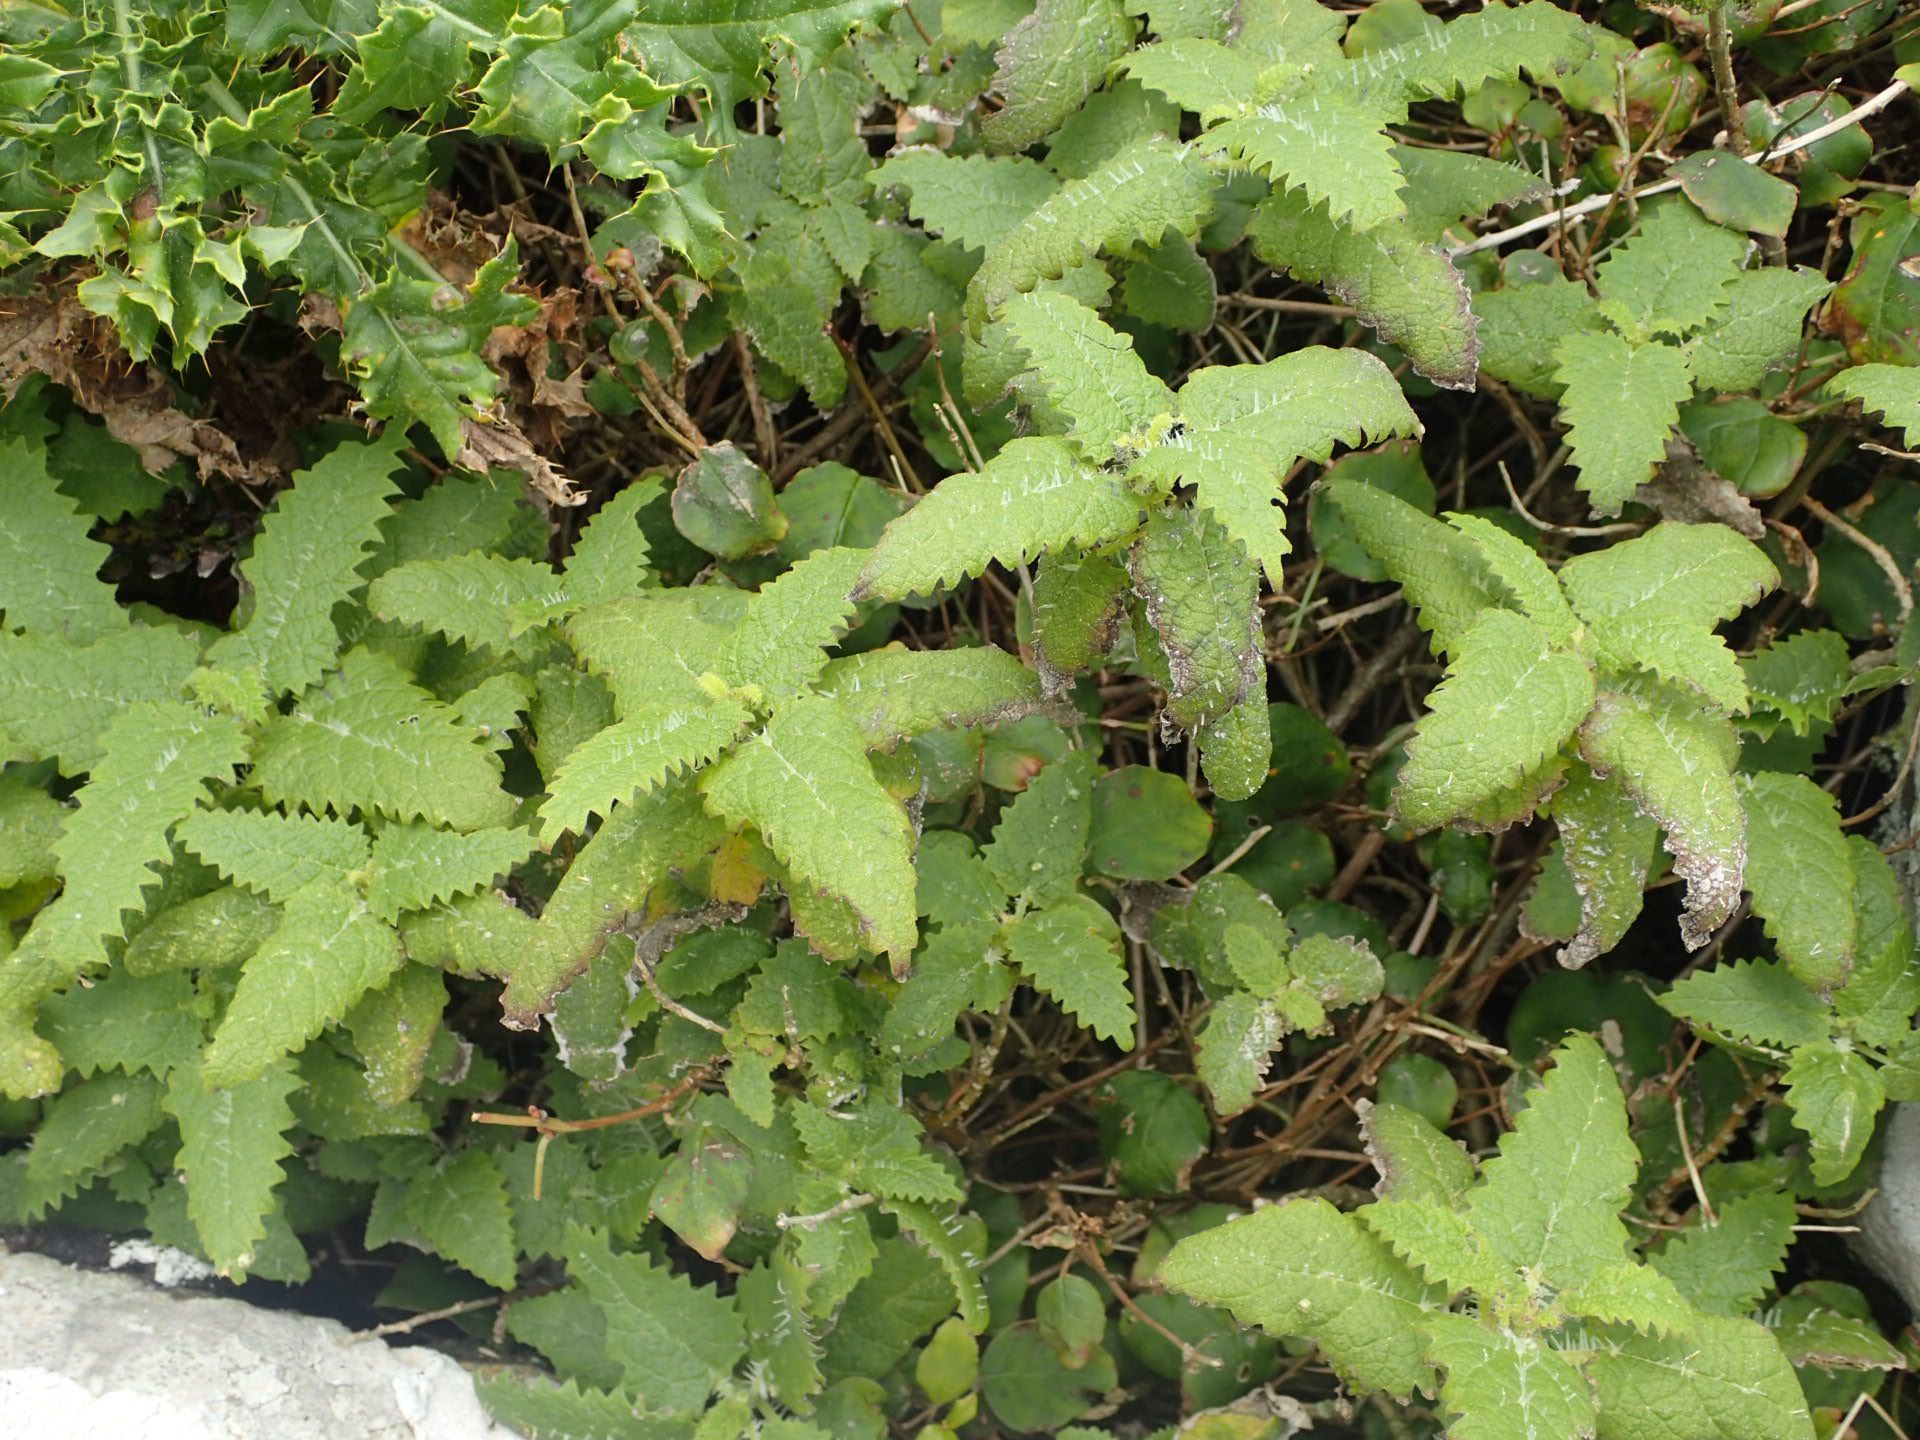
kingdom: Plantae
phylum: Tracheophyta
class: Magnoliopsida
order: Rosales
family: Urticaceae
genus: Urtica
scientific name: Urtica ferox
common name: Tree nettle
